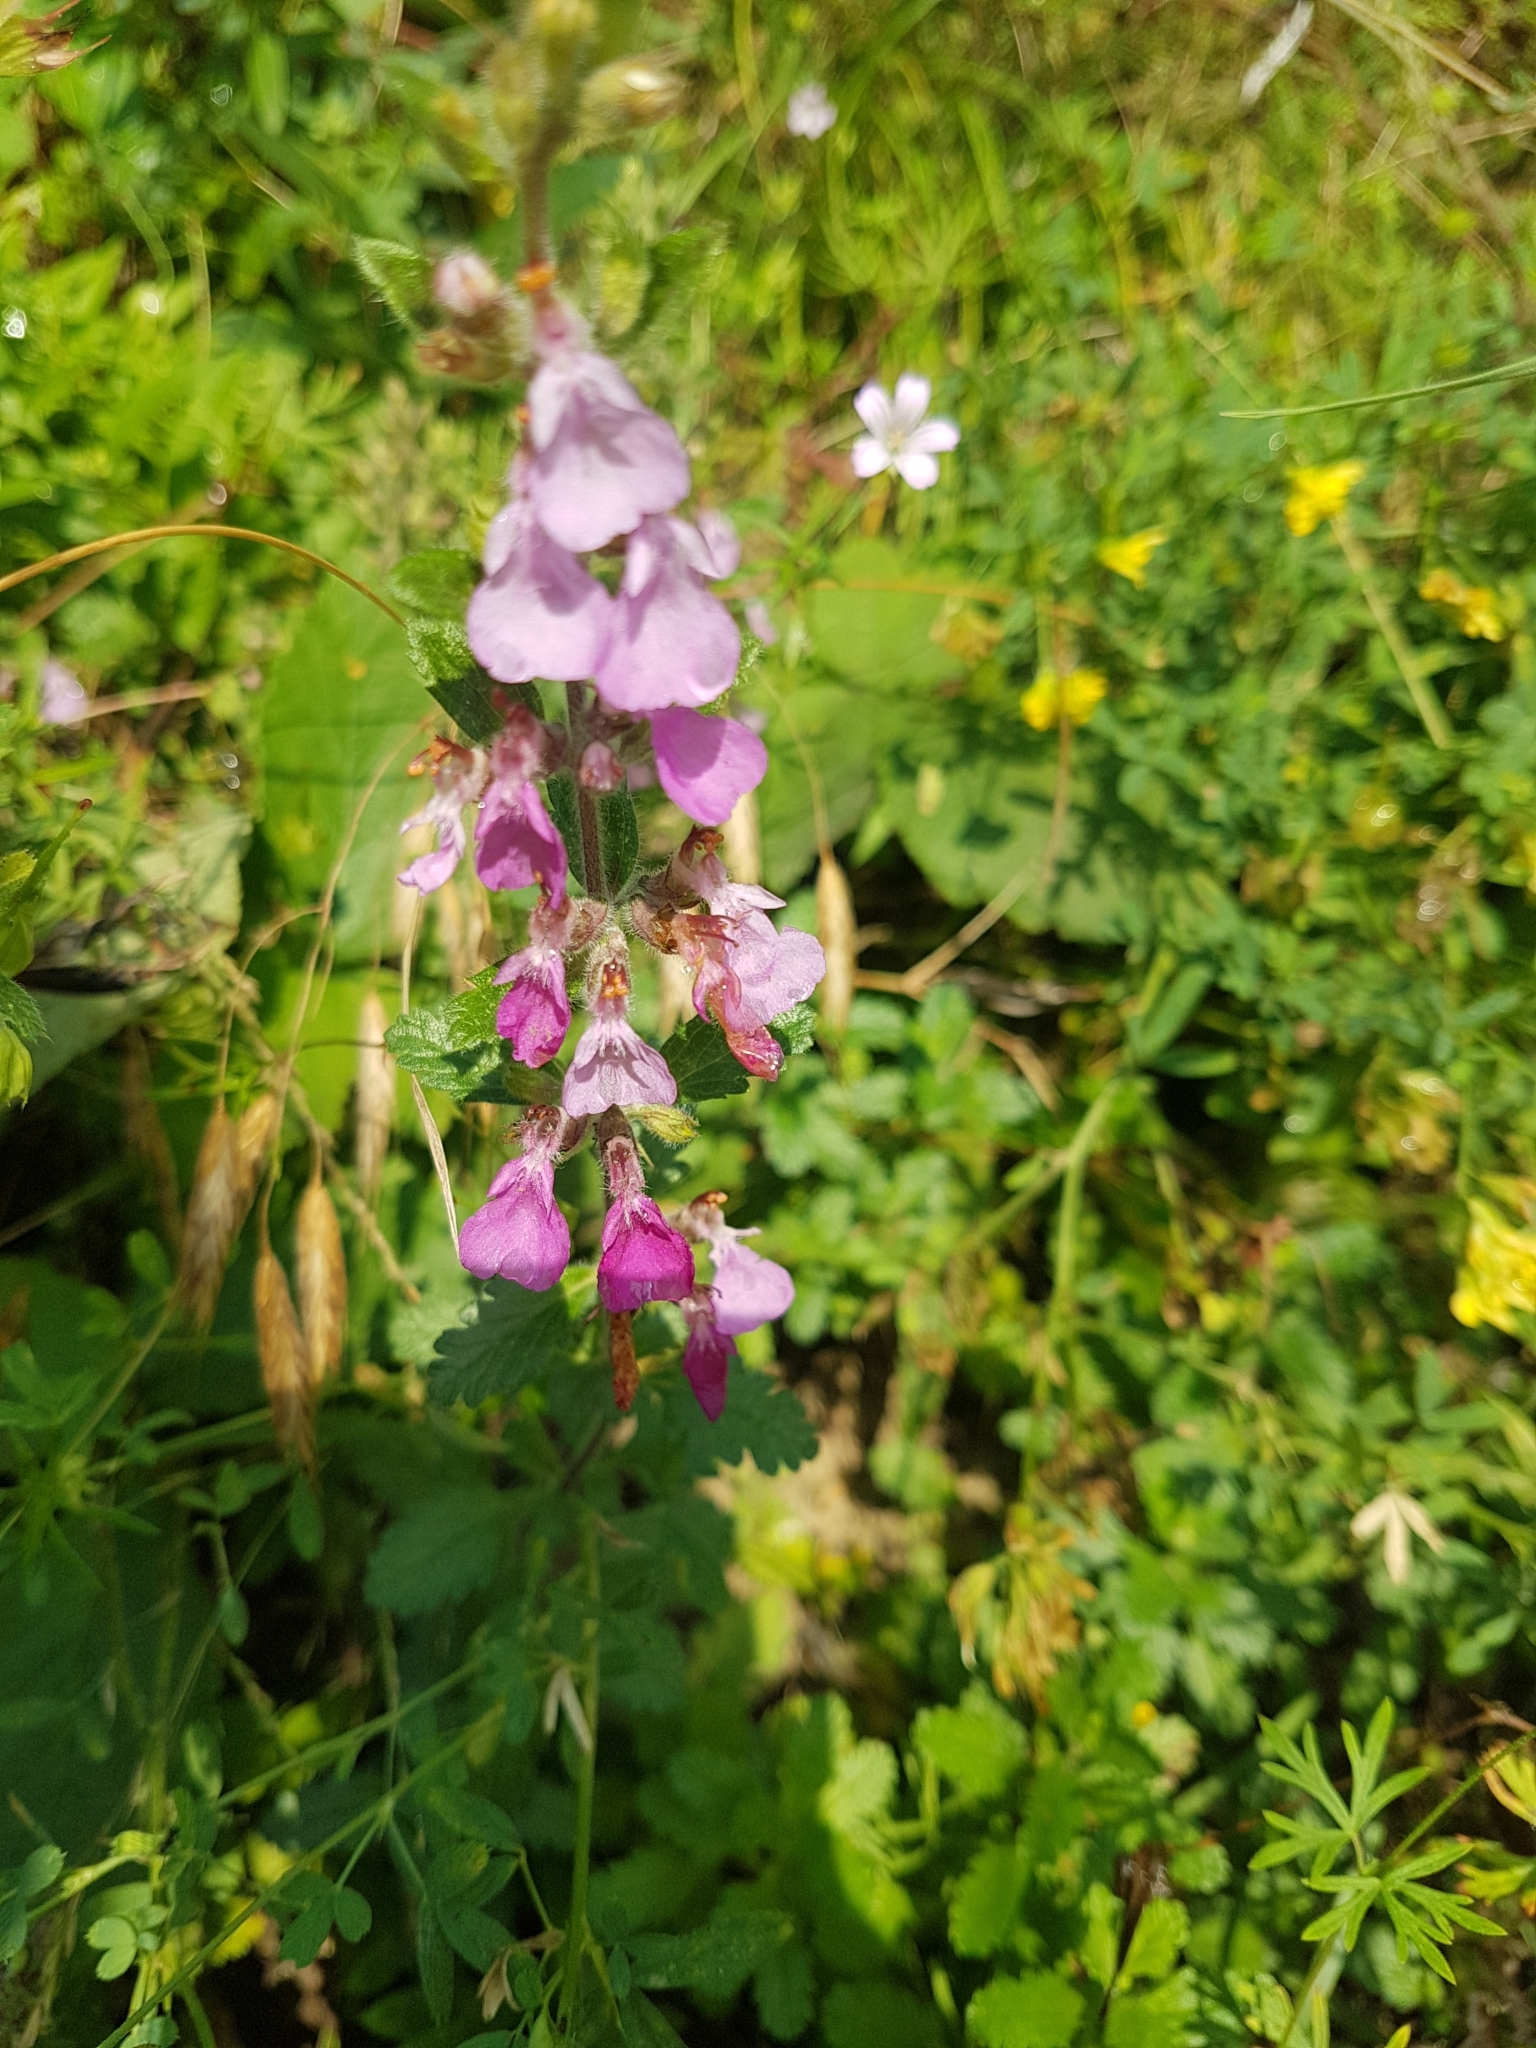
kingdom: Plantae
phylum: Tracheophyta
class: Magnoliopsida
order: Lamiales
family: Lamiaceae
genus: Teucrium
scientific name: Teucrium chamaedrys
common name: Wall germander
